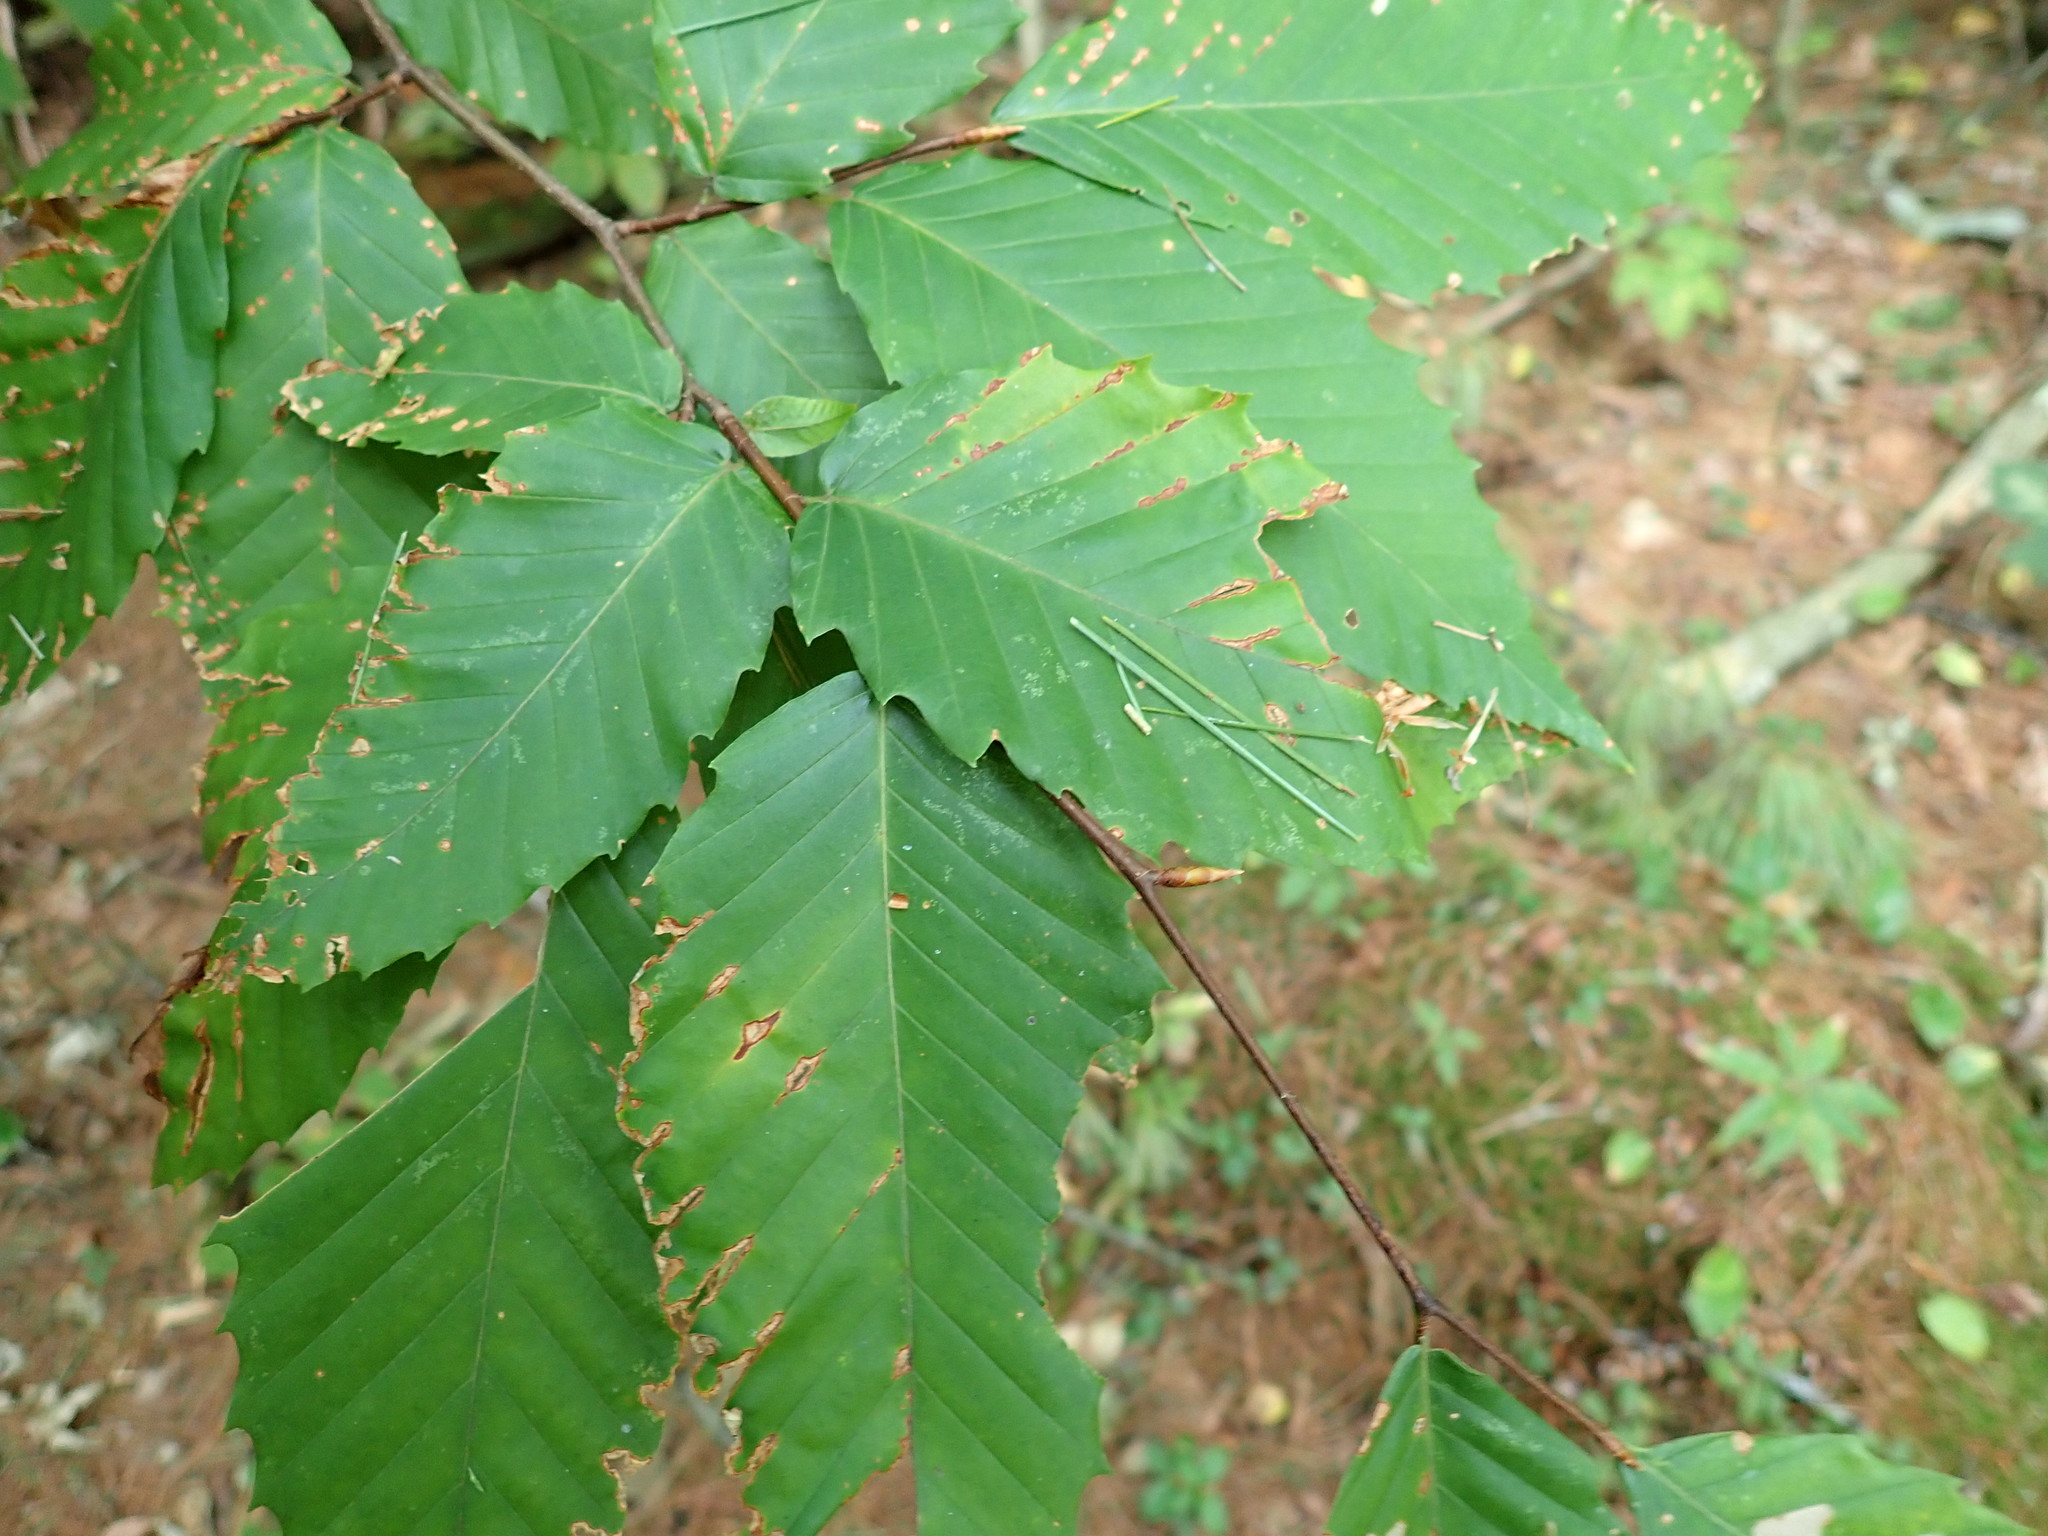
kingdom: Plantae
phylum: Tracheophyta
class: Magnoliopsida
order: Fagales
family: Fagaceae
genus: Fagus
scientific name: Fagus grandifolia
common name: American beech
